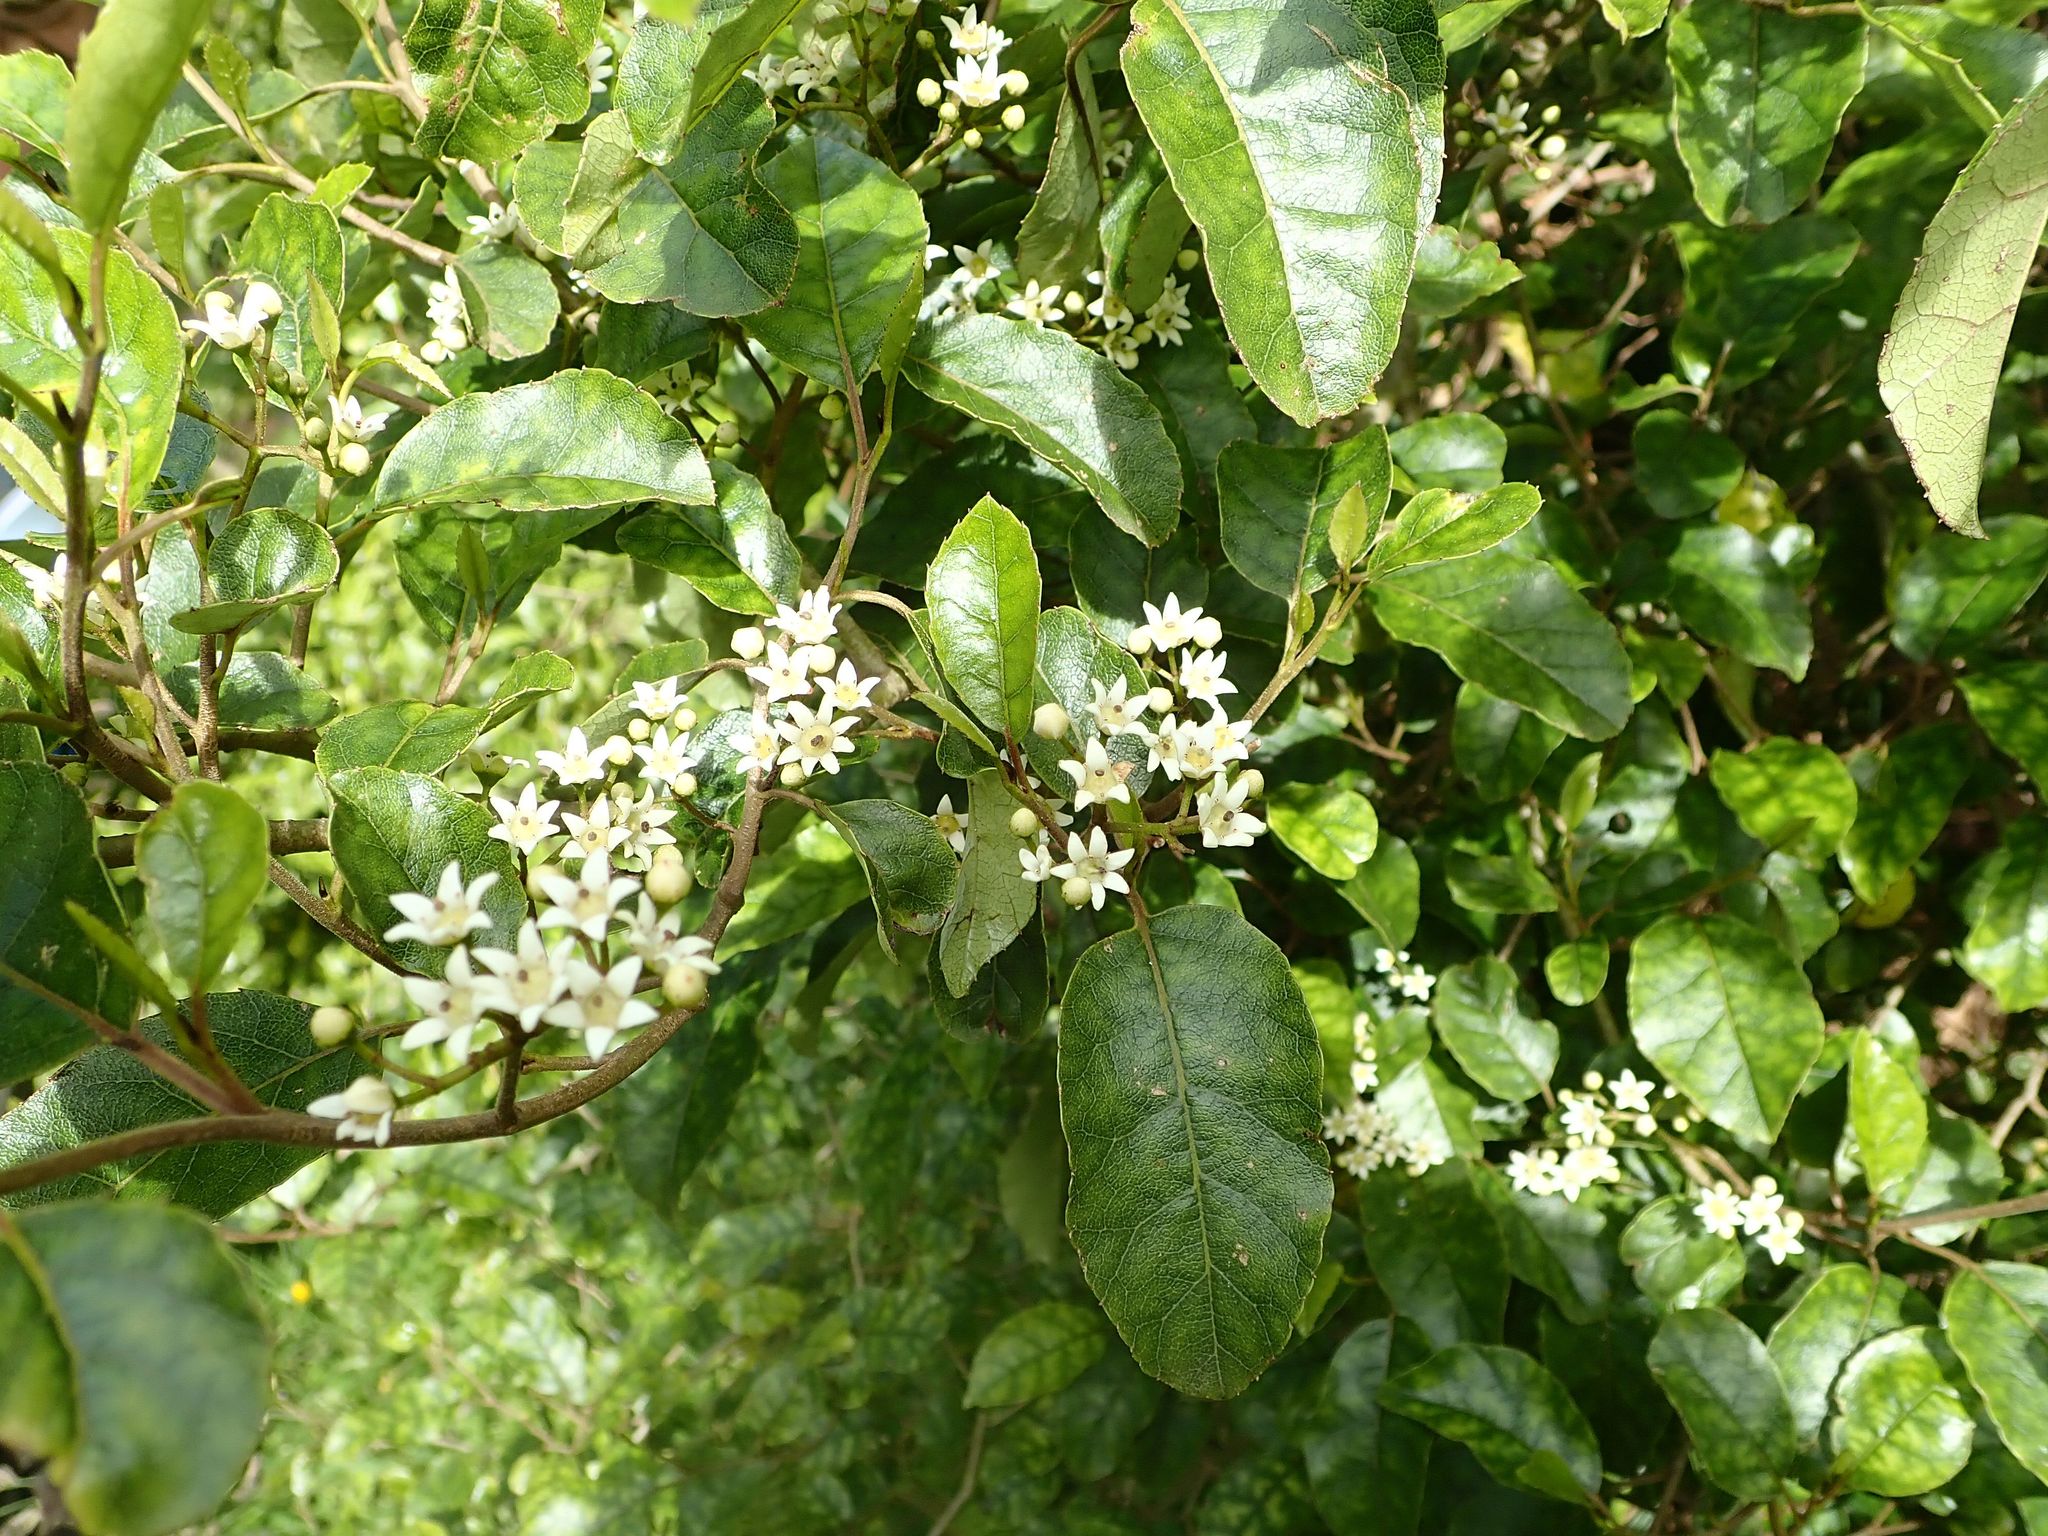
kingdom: Plantae
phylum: Tracheophyta
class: Magnoliopsida
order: Asterales
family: Rousseaceae
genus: Carpodetus
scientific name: Carpodetus serratus
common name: White mapau
